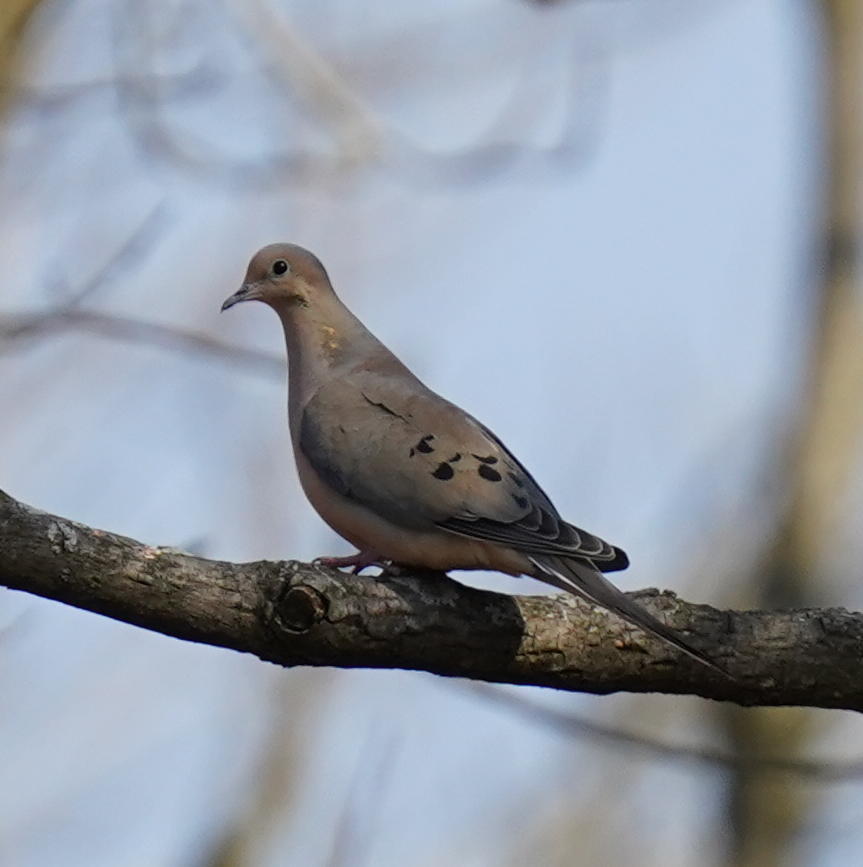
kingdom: Animalia
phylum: Chordata
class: Aves
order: Columbiformes
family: Columbidae
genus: Zenaida
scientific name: Zenaida macroura
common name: Mourning dove
